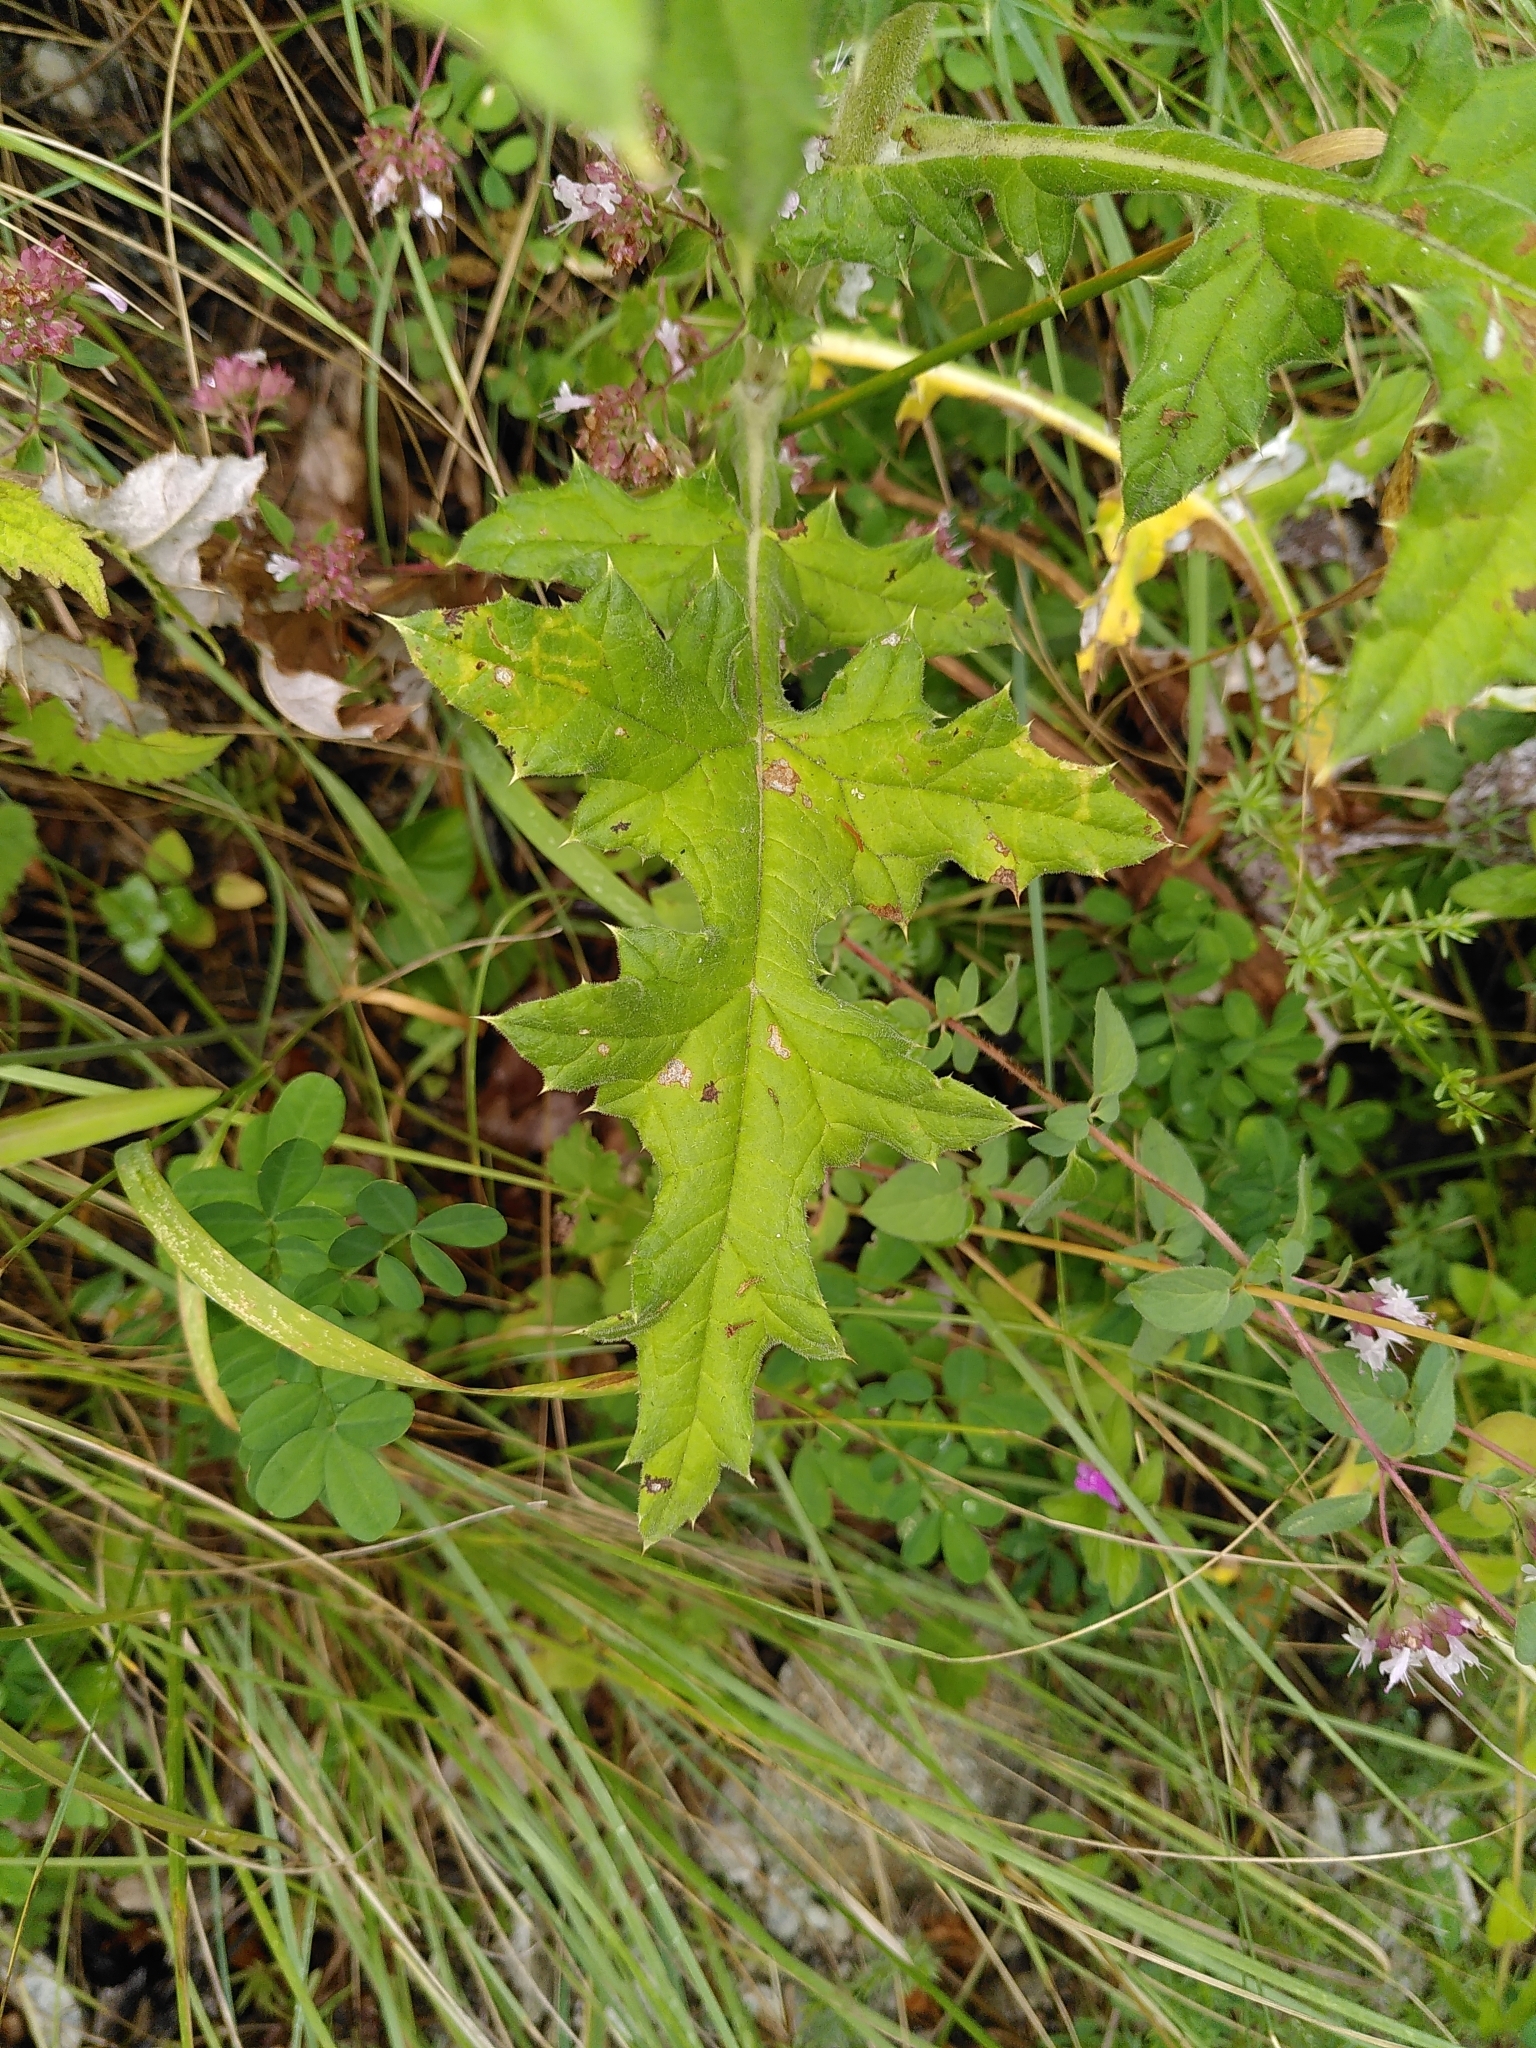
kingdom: Plantae
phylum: Tracheophyta
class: Magnoliopsida
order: Asterales
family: Asteraceae
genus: Echinops
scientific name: Echinops sphaerocephalus
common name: Glandular globe-thistle
